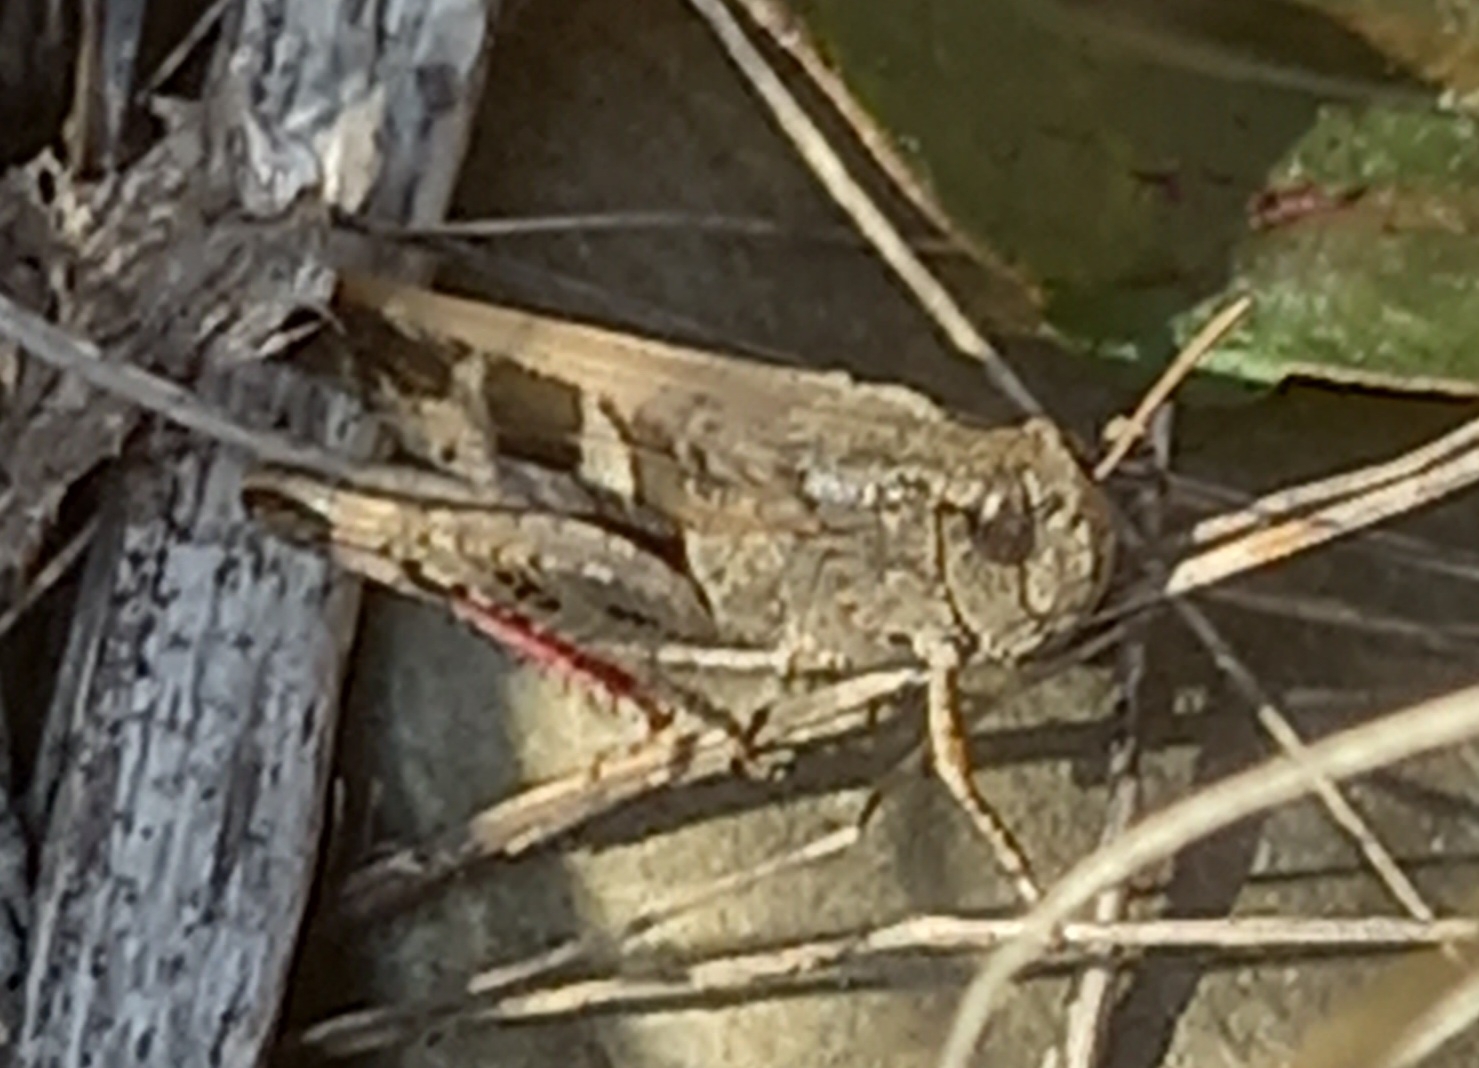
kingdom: Animalia
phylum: Arthropoda
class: Insecta
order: Orthoptera
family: Acrididae
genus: Aiolopus
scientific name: Aiolopus strepens
